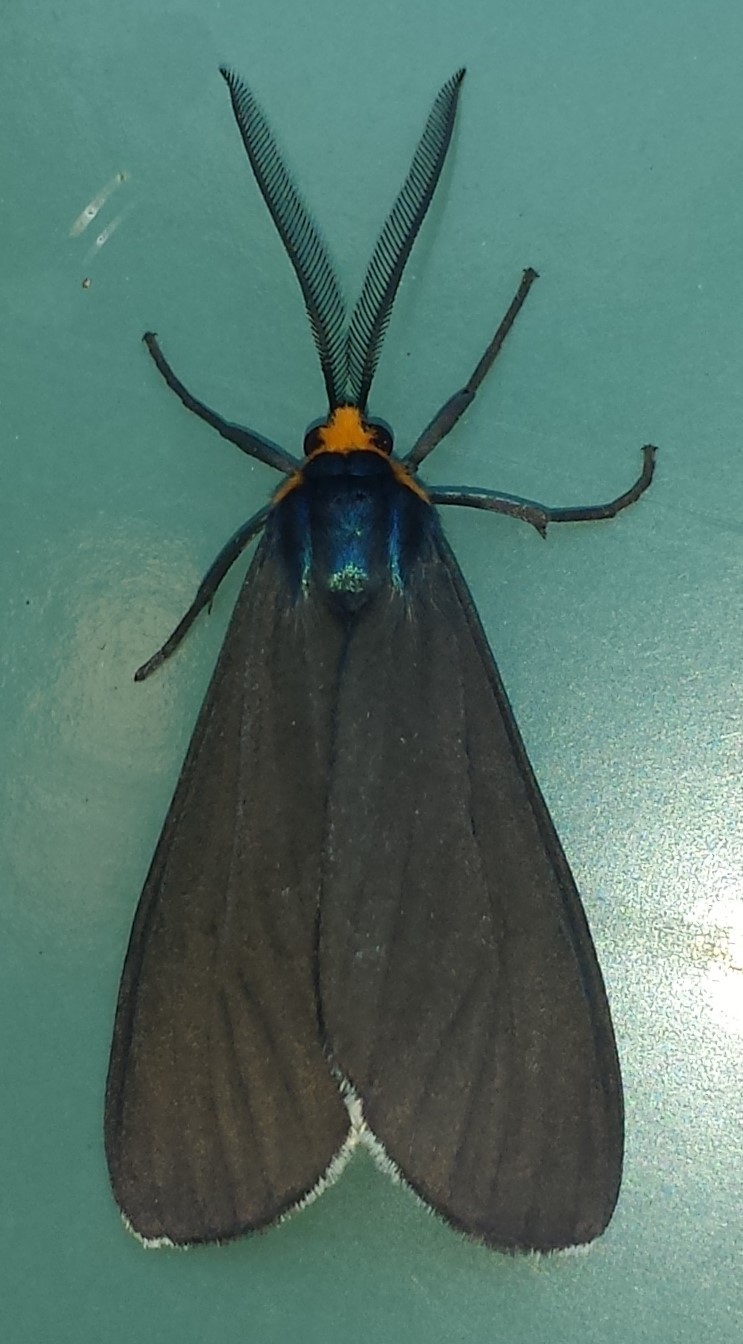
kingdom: Animalia
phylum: Arthropoda
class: Insecta
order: Lepidoptera
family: Erebidae
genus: Ctenucha
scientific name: Ctenucha virginica
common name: Virginia ctenucha moth
